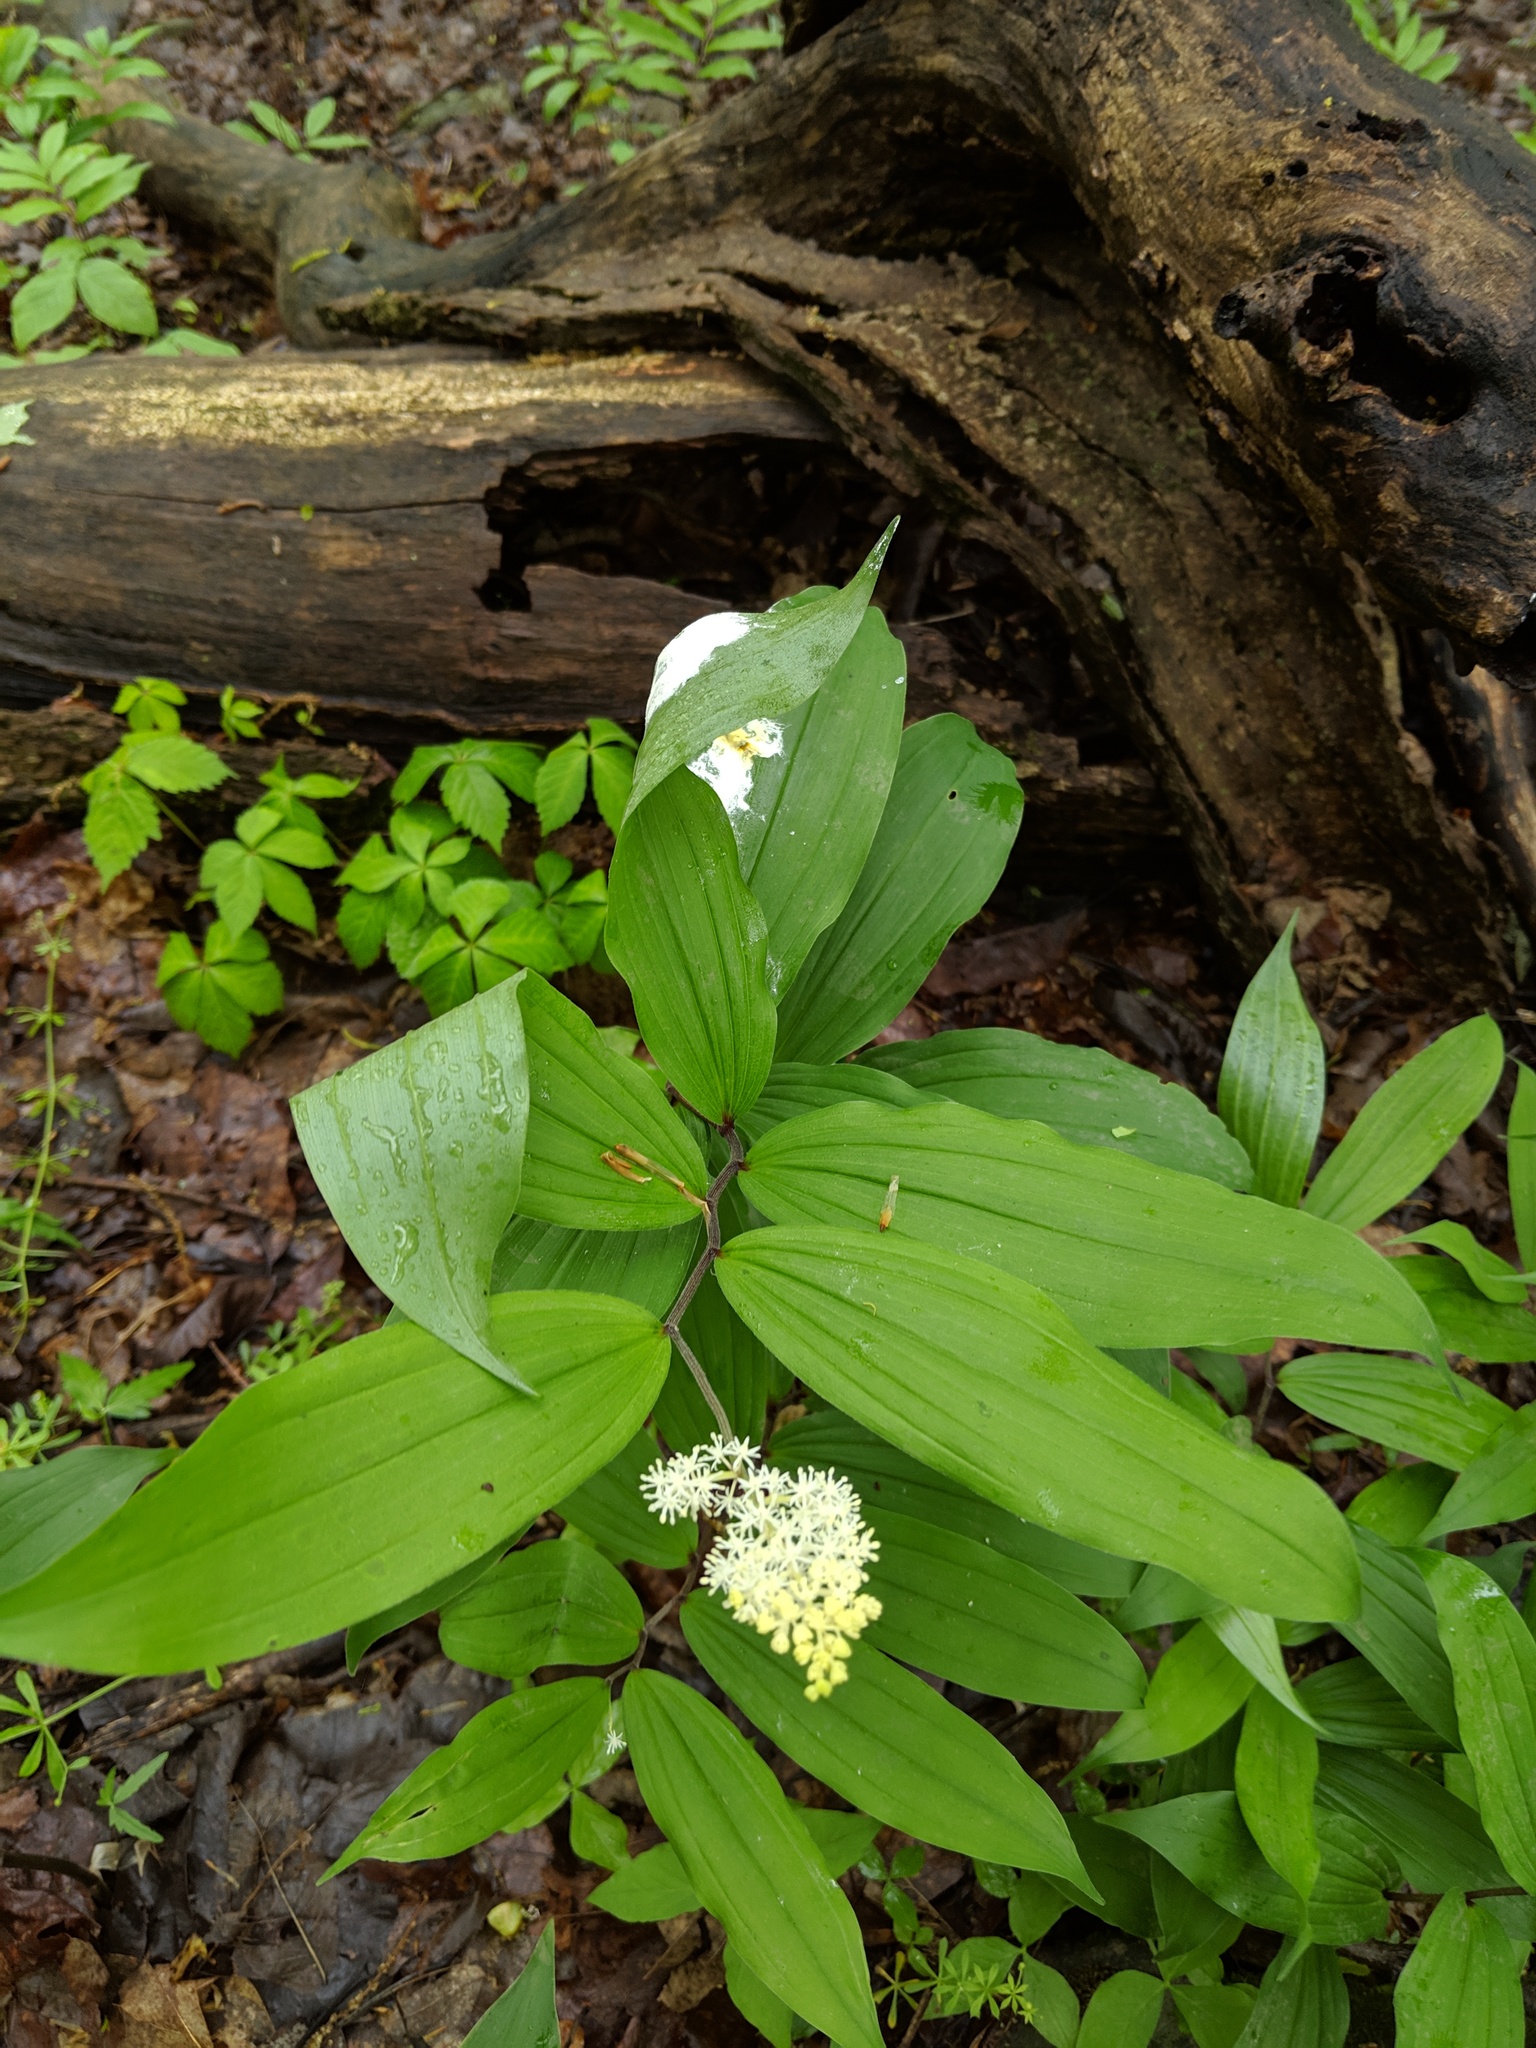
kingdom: Plantae
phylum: Tracheophyta
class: Liliopsida
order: Asparagales
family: Asparagaceae
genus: Maianthemum
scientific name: Maianthemum racemosum
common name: False spikenard
